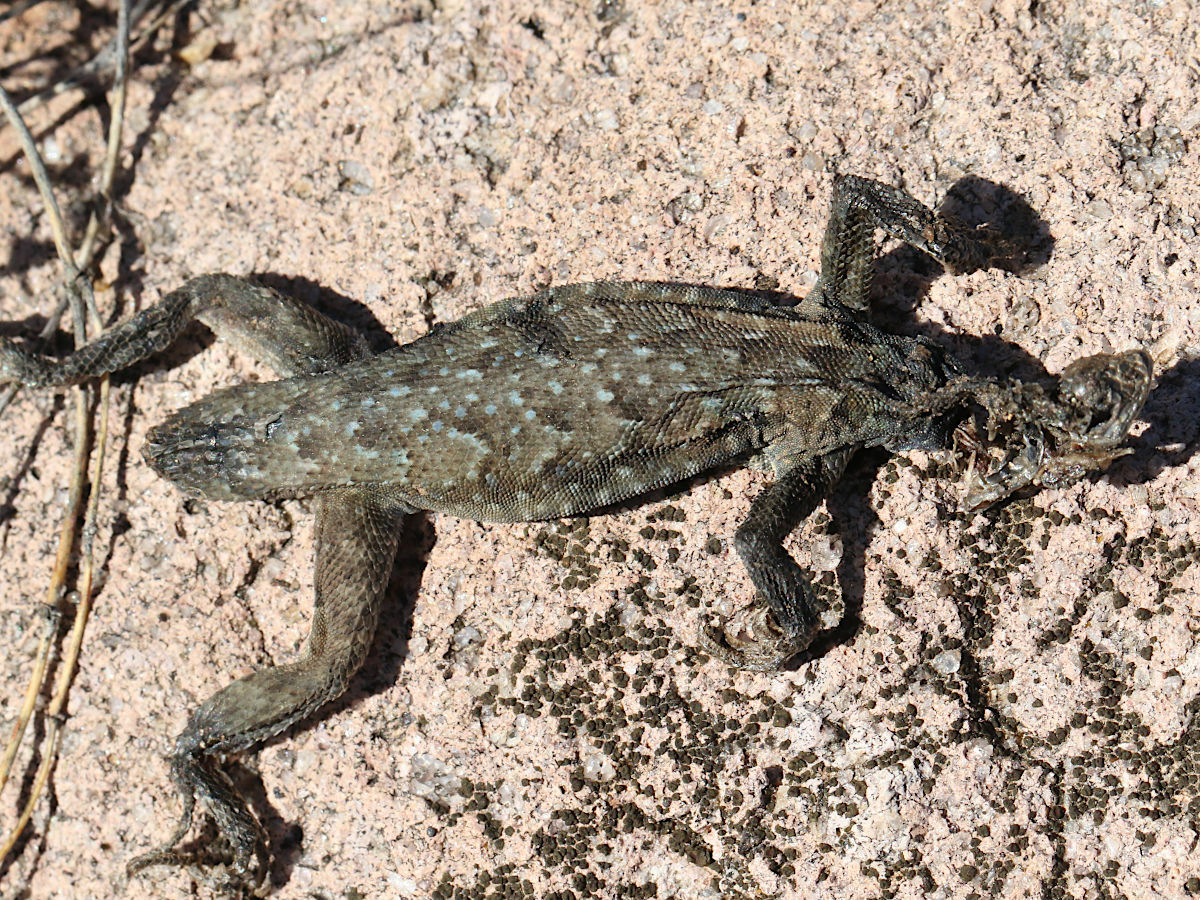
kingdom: Animalia
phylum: Chordata
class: Squamata
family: Phrynosomatidae
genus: Uta
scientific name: Uta stansburiana
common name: Side-blotched lizard
